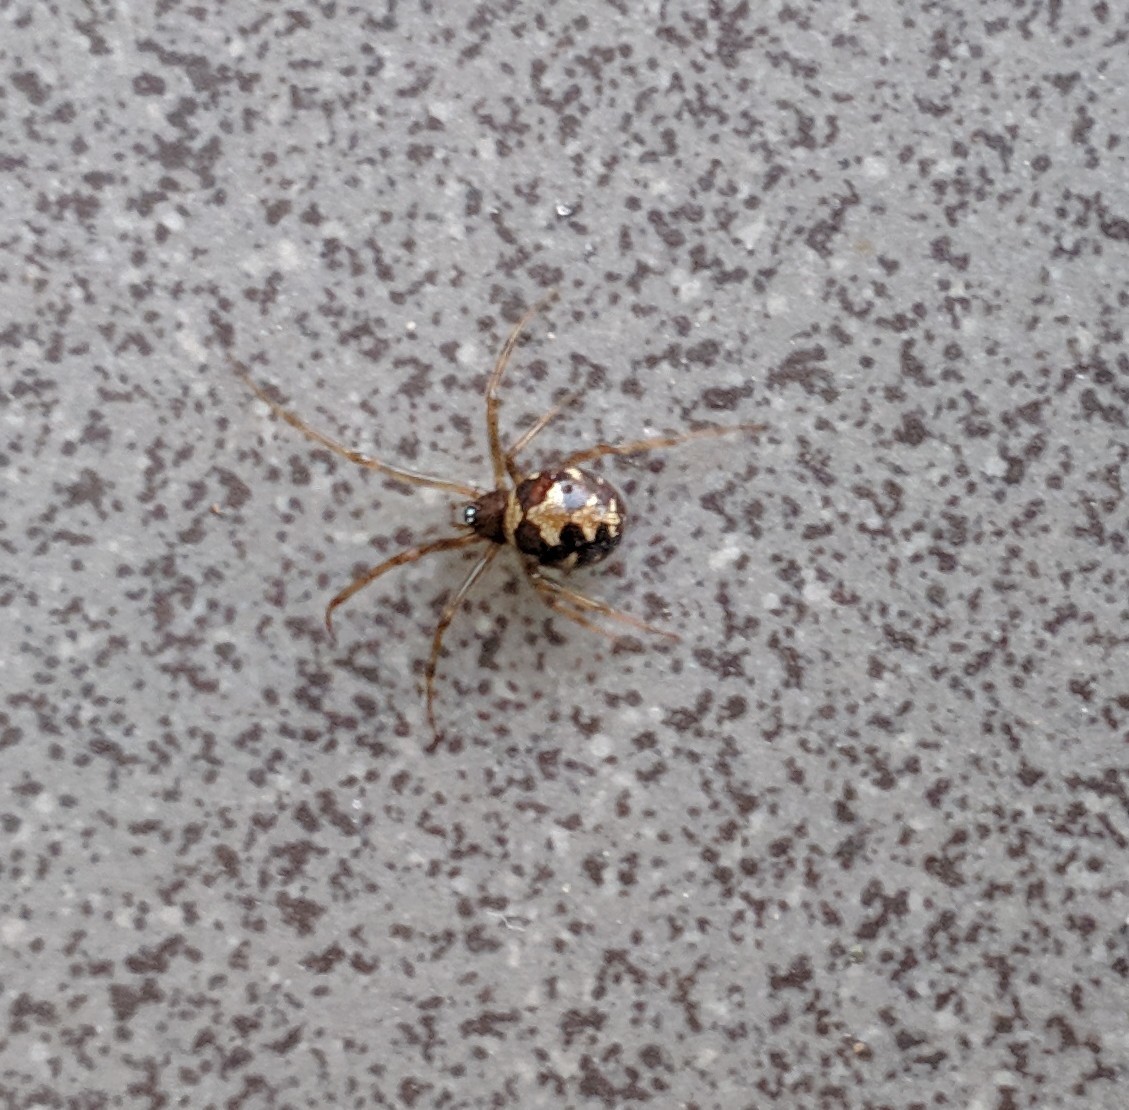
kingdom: Animalia
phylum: Arthropoda
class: Arachnida
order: Araneae
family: Theridiidae
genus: Steatoda
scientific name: Steatoda triangulosa
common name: Triangulate bud spider
